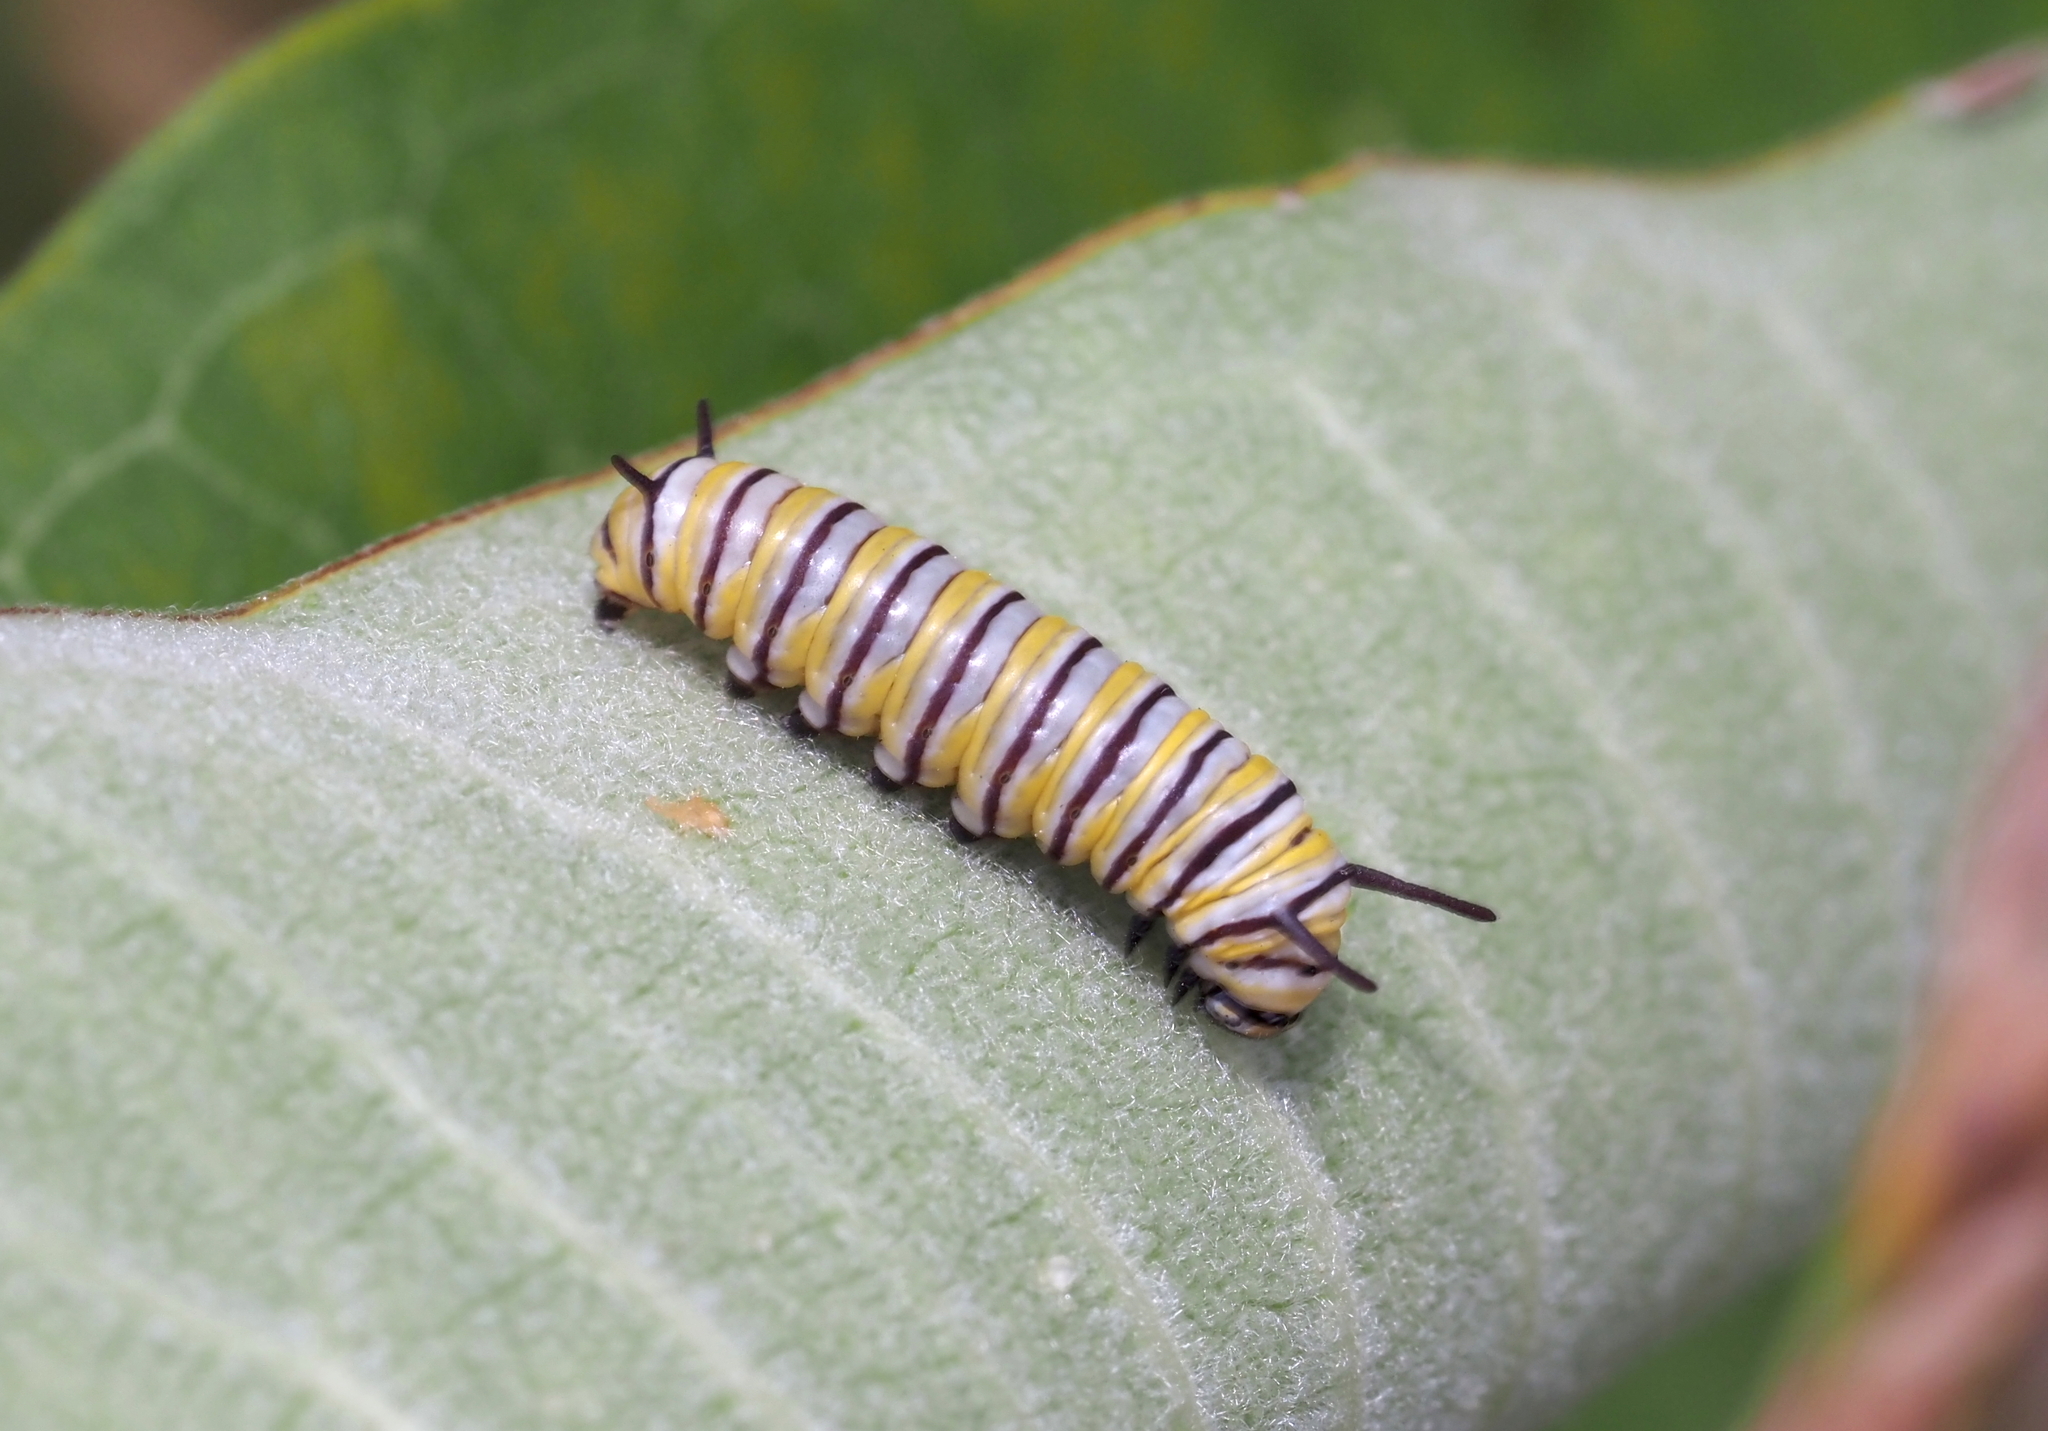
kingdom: Animalia
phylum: Arthropoda
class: Insecta
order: Lepidoptera
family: Nymphalidae
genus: Danaus
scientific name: Danaus plexippus
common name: Monarch
